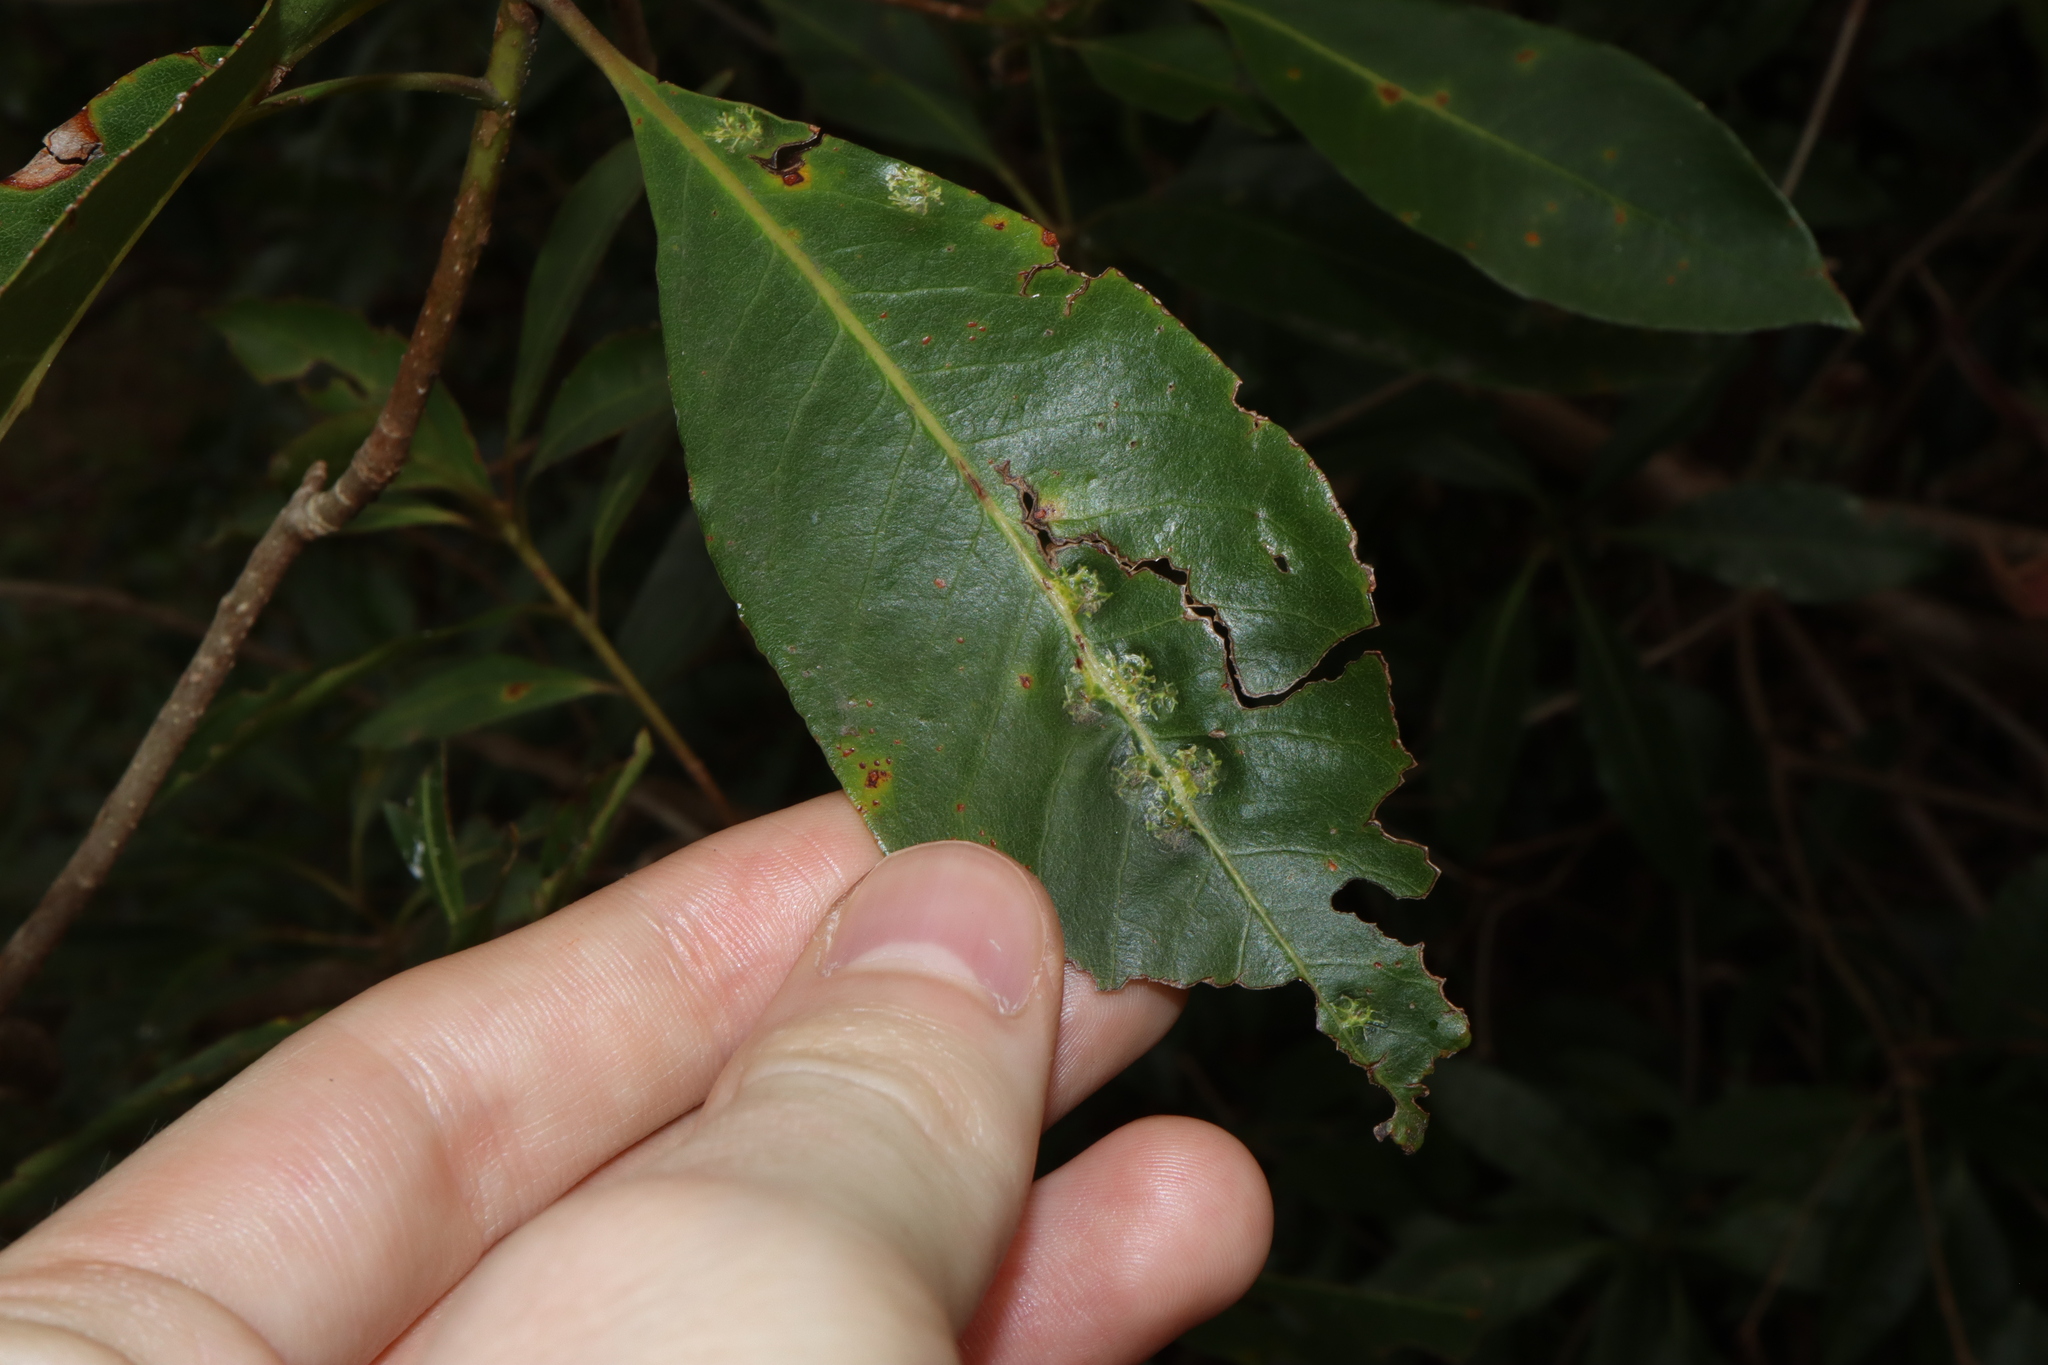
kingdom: Animalia
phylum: Arthropoda
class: Insecta
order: Diptera
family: Agromyzidae
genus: Phytoliriomyza
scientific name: Phytoliriomyza pittosporophylli
